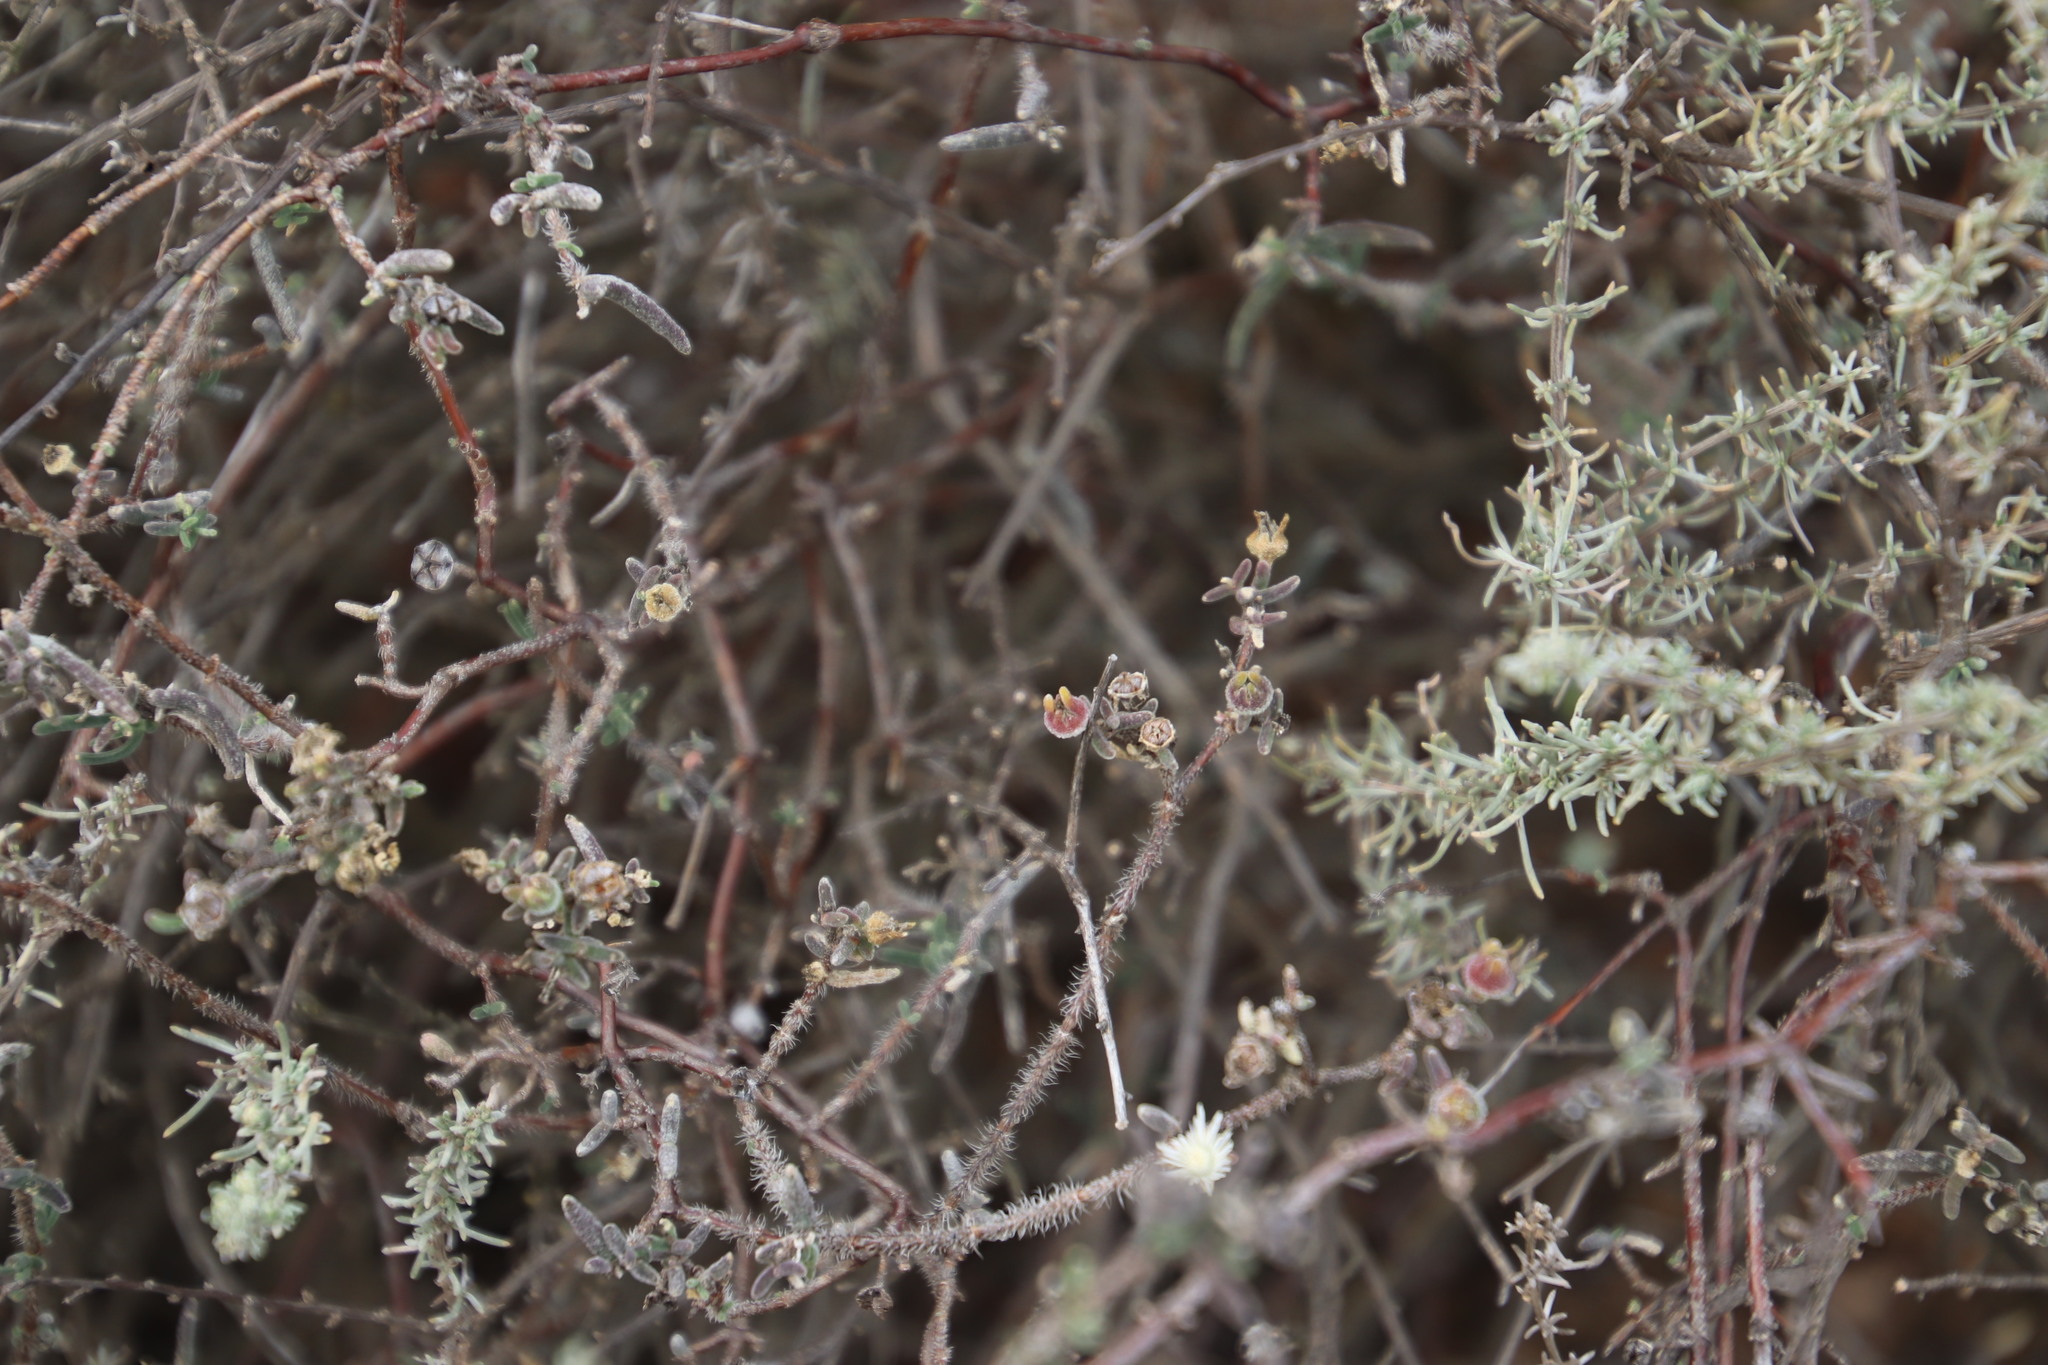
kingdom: Plantae
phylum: Tracheophyta
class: Magnoliopsida
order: Caryophyllales
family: Aizoaceae
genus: Drosanthemum
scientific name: Drosanthemum calycinum
